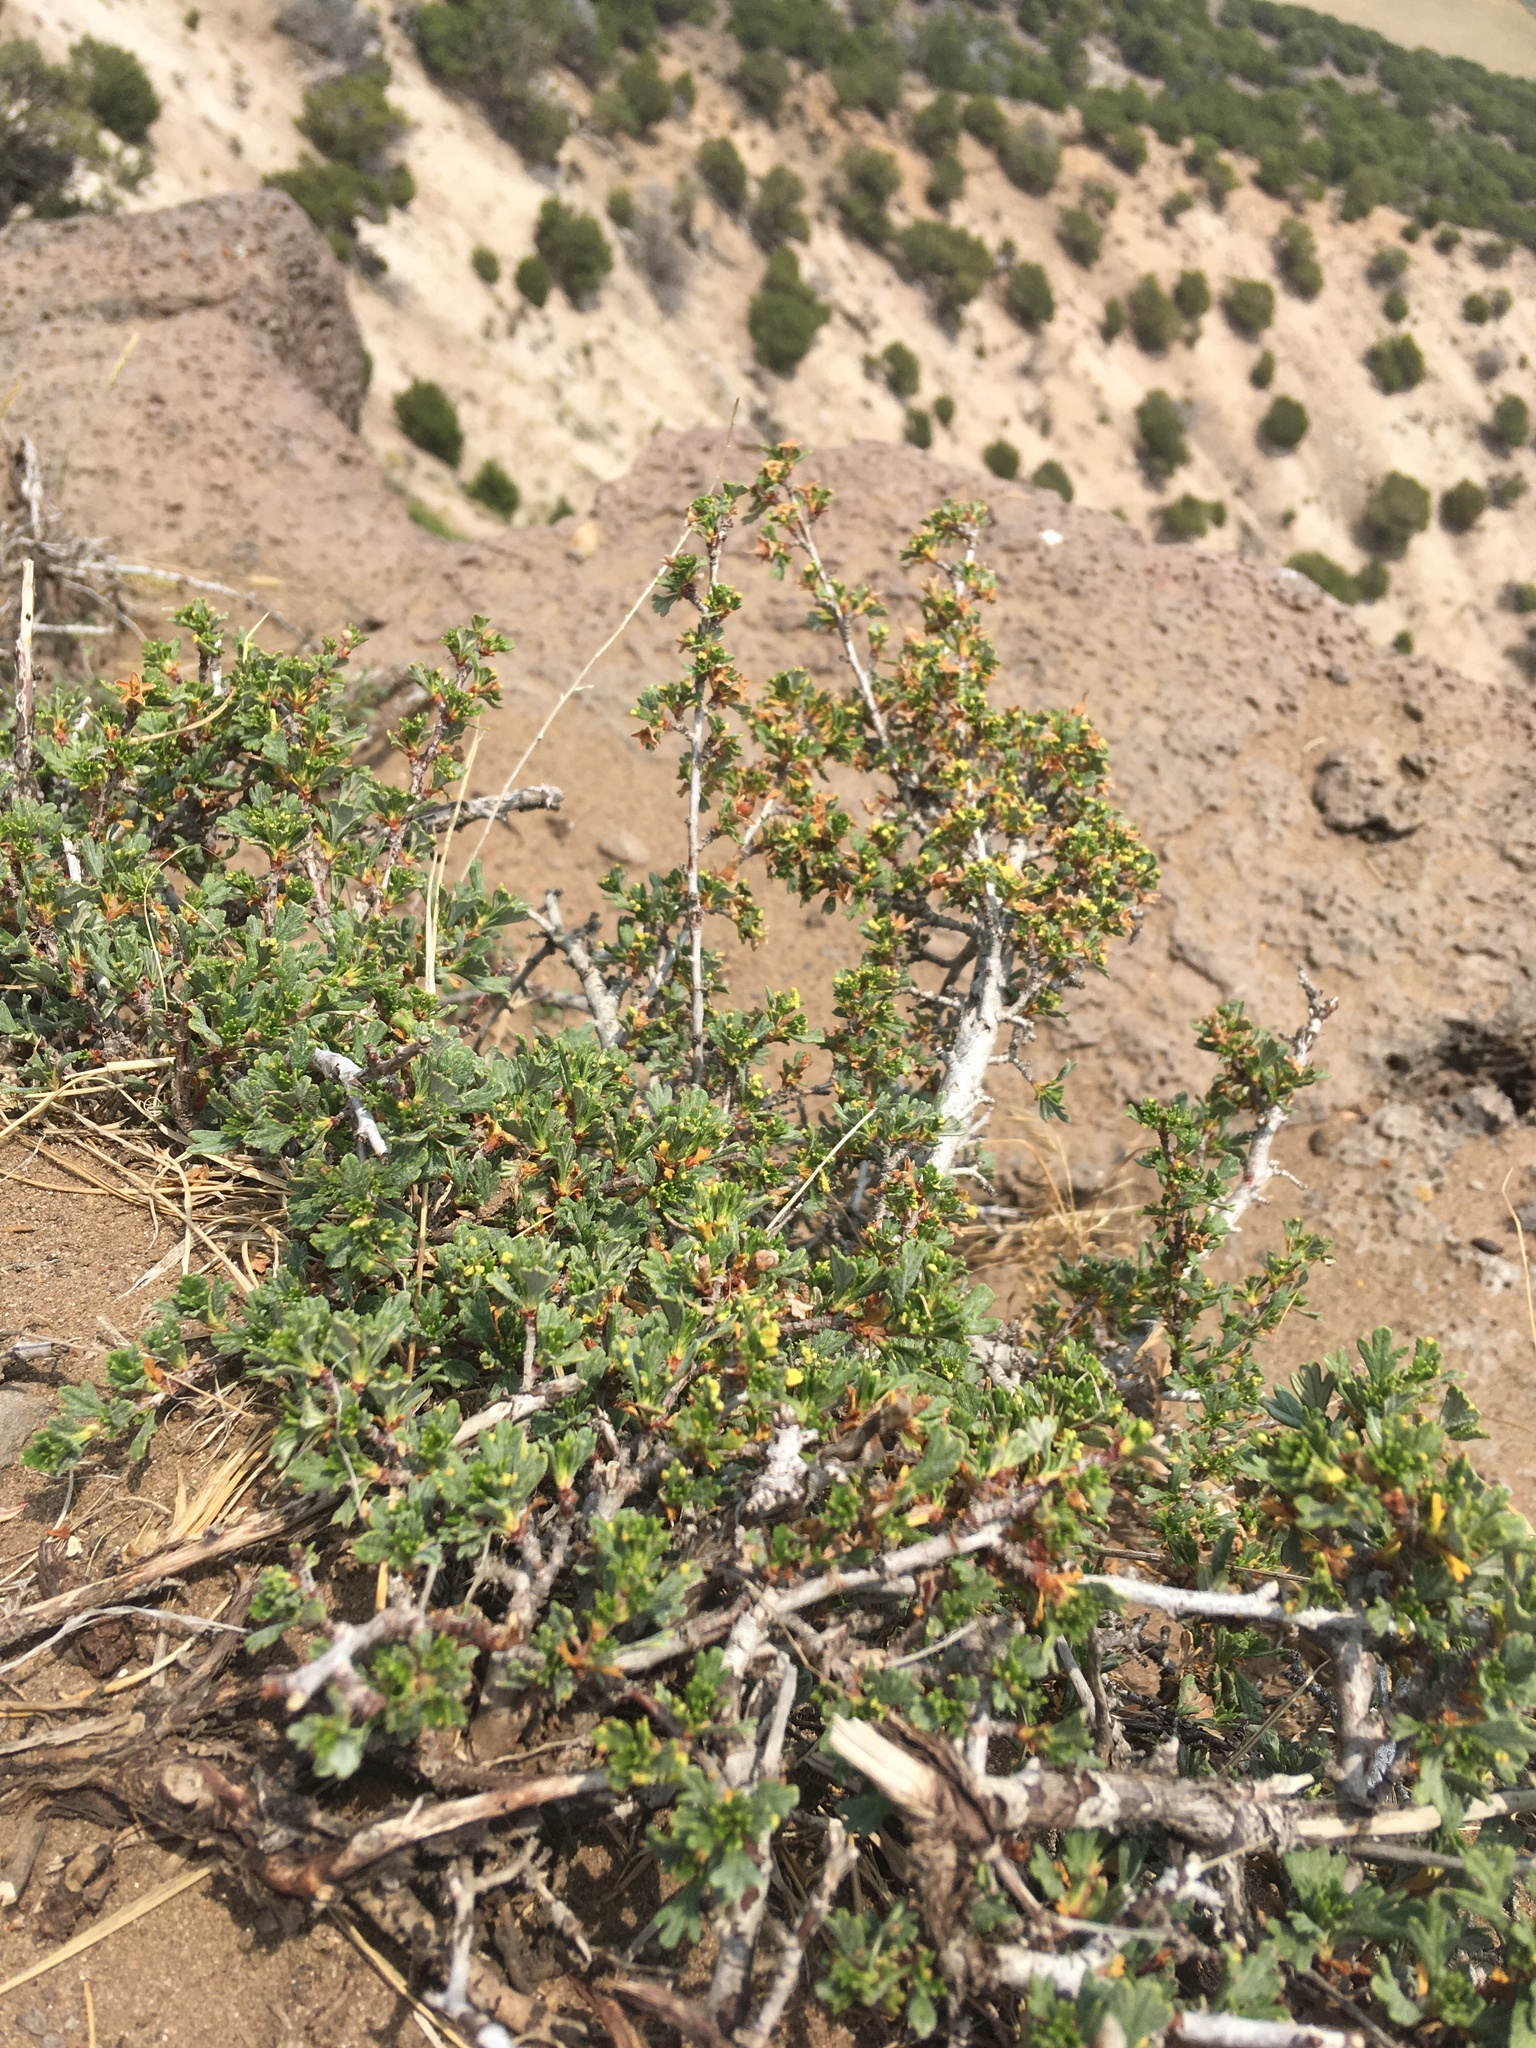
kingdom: Plantae
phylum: Tracheophyta
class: Magnoliopsida
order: Rosales
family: Rosaceae
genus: Purshia
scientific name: Purshia tridentata
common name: Antelope bitterbrush
